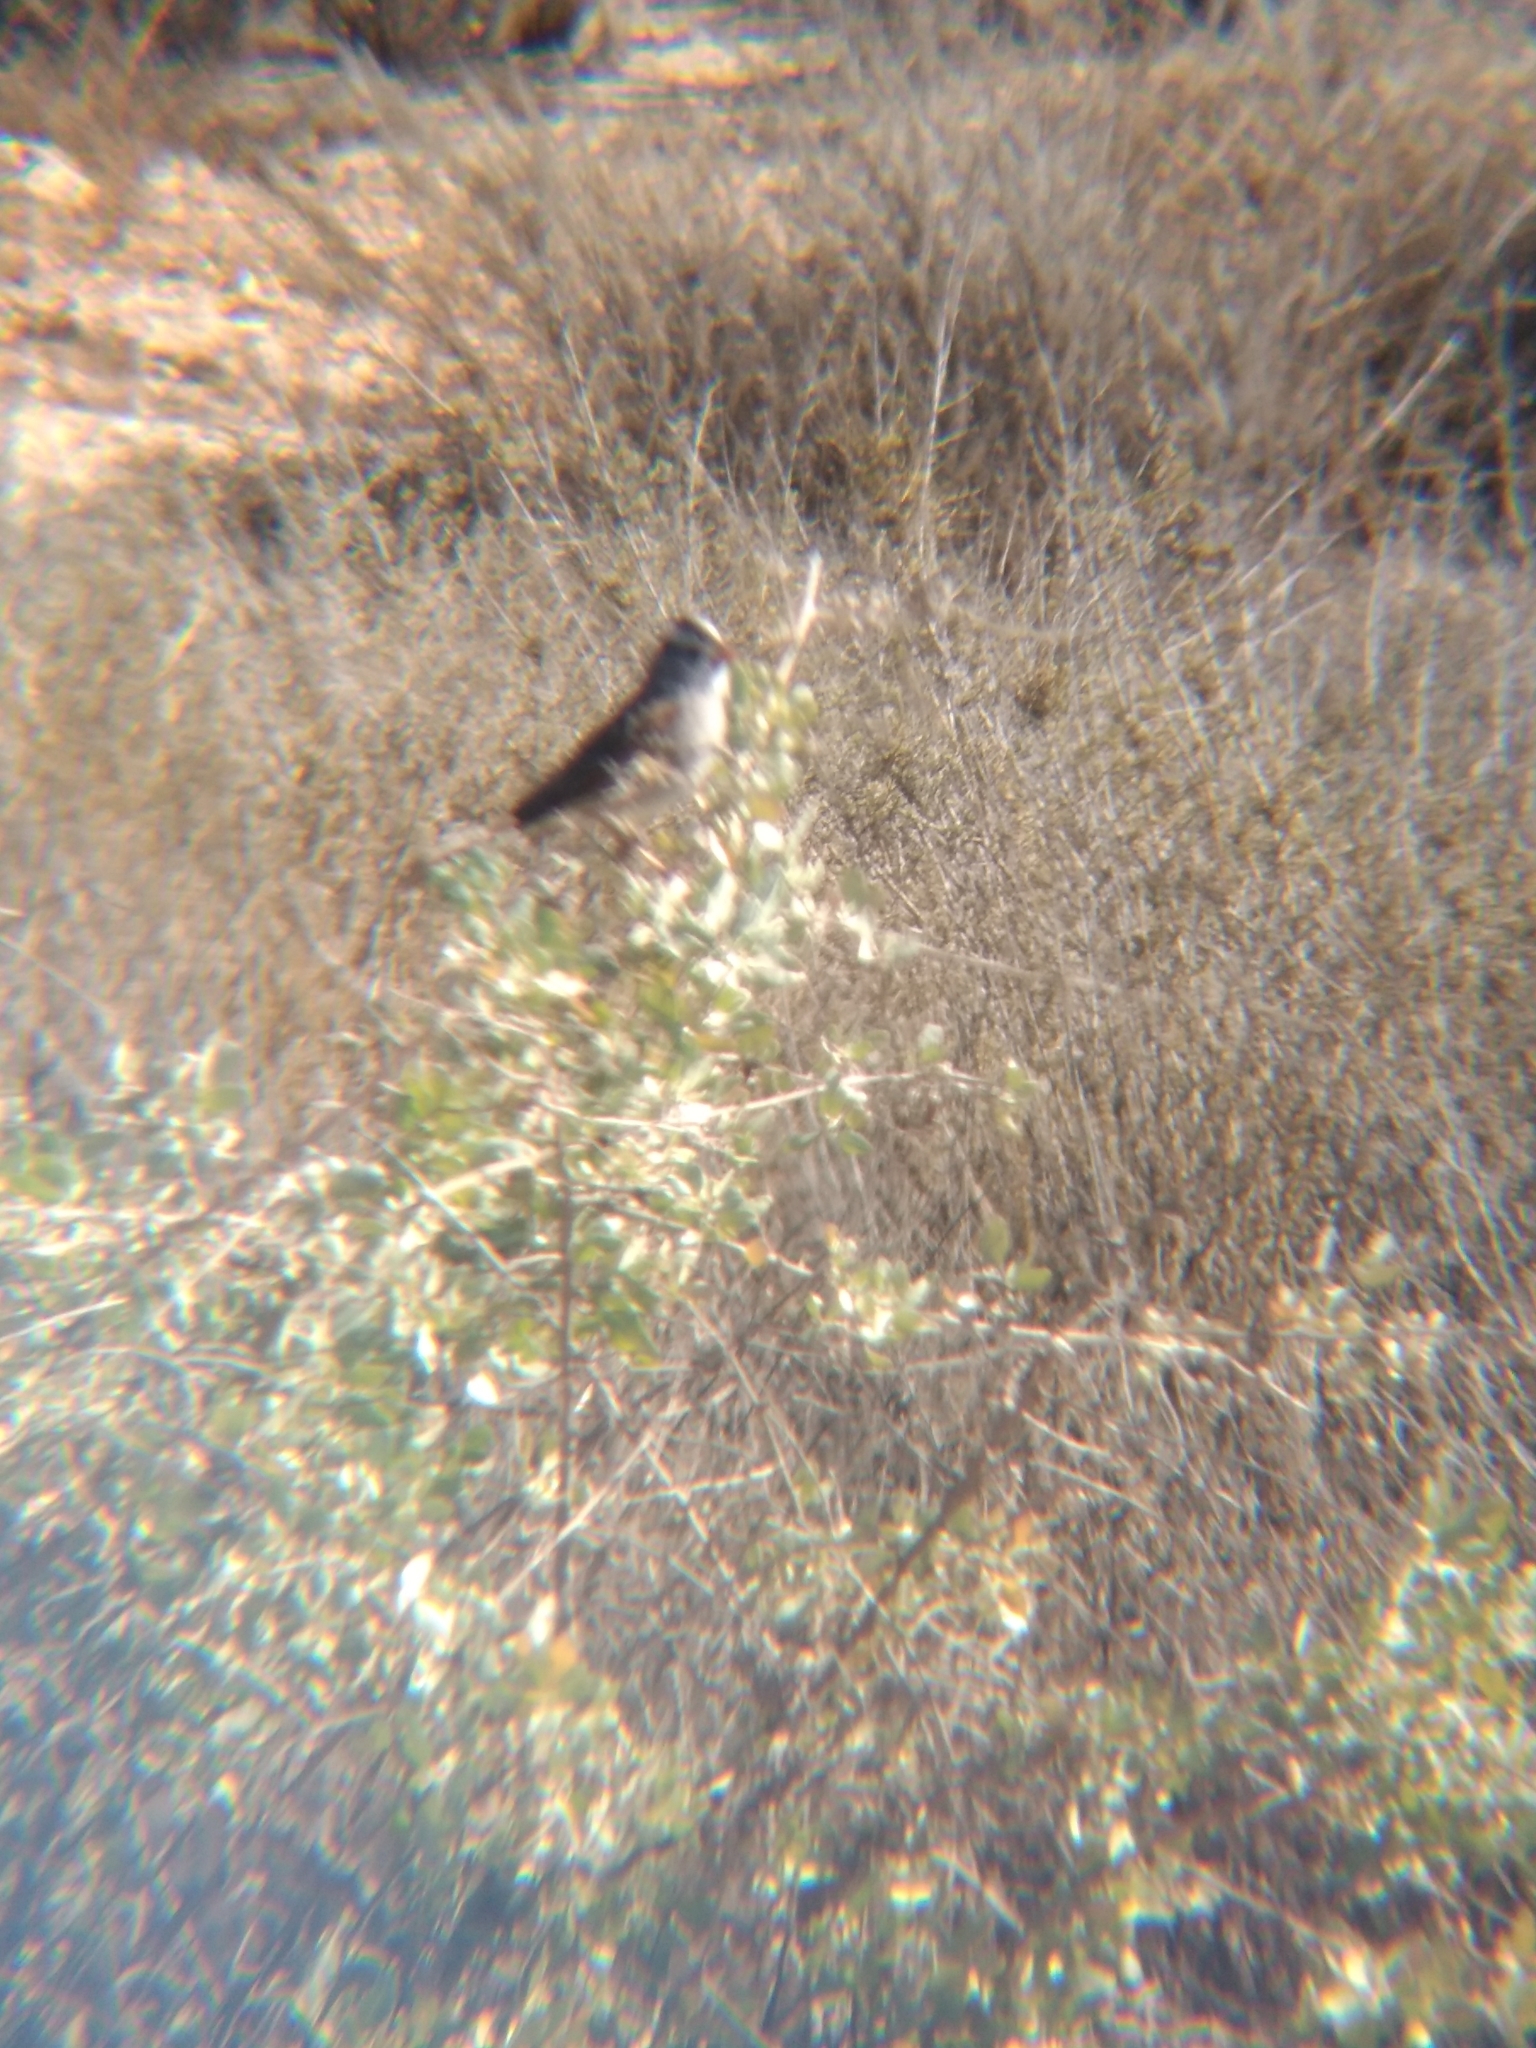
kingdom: Animalia
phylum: Chordata
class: Aves
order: Passeriformes
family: Passerellidae
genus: Zonotrichia
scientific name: Zonotrichia leucophrys
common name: White-crowned sparrow
